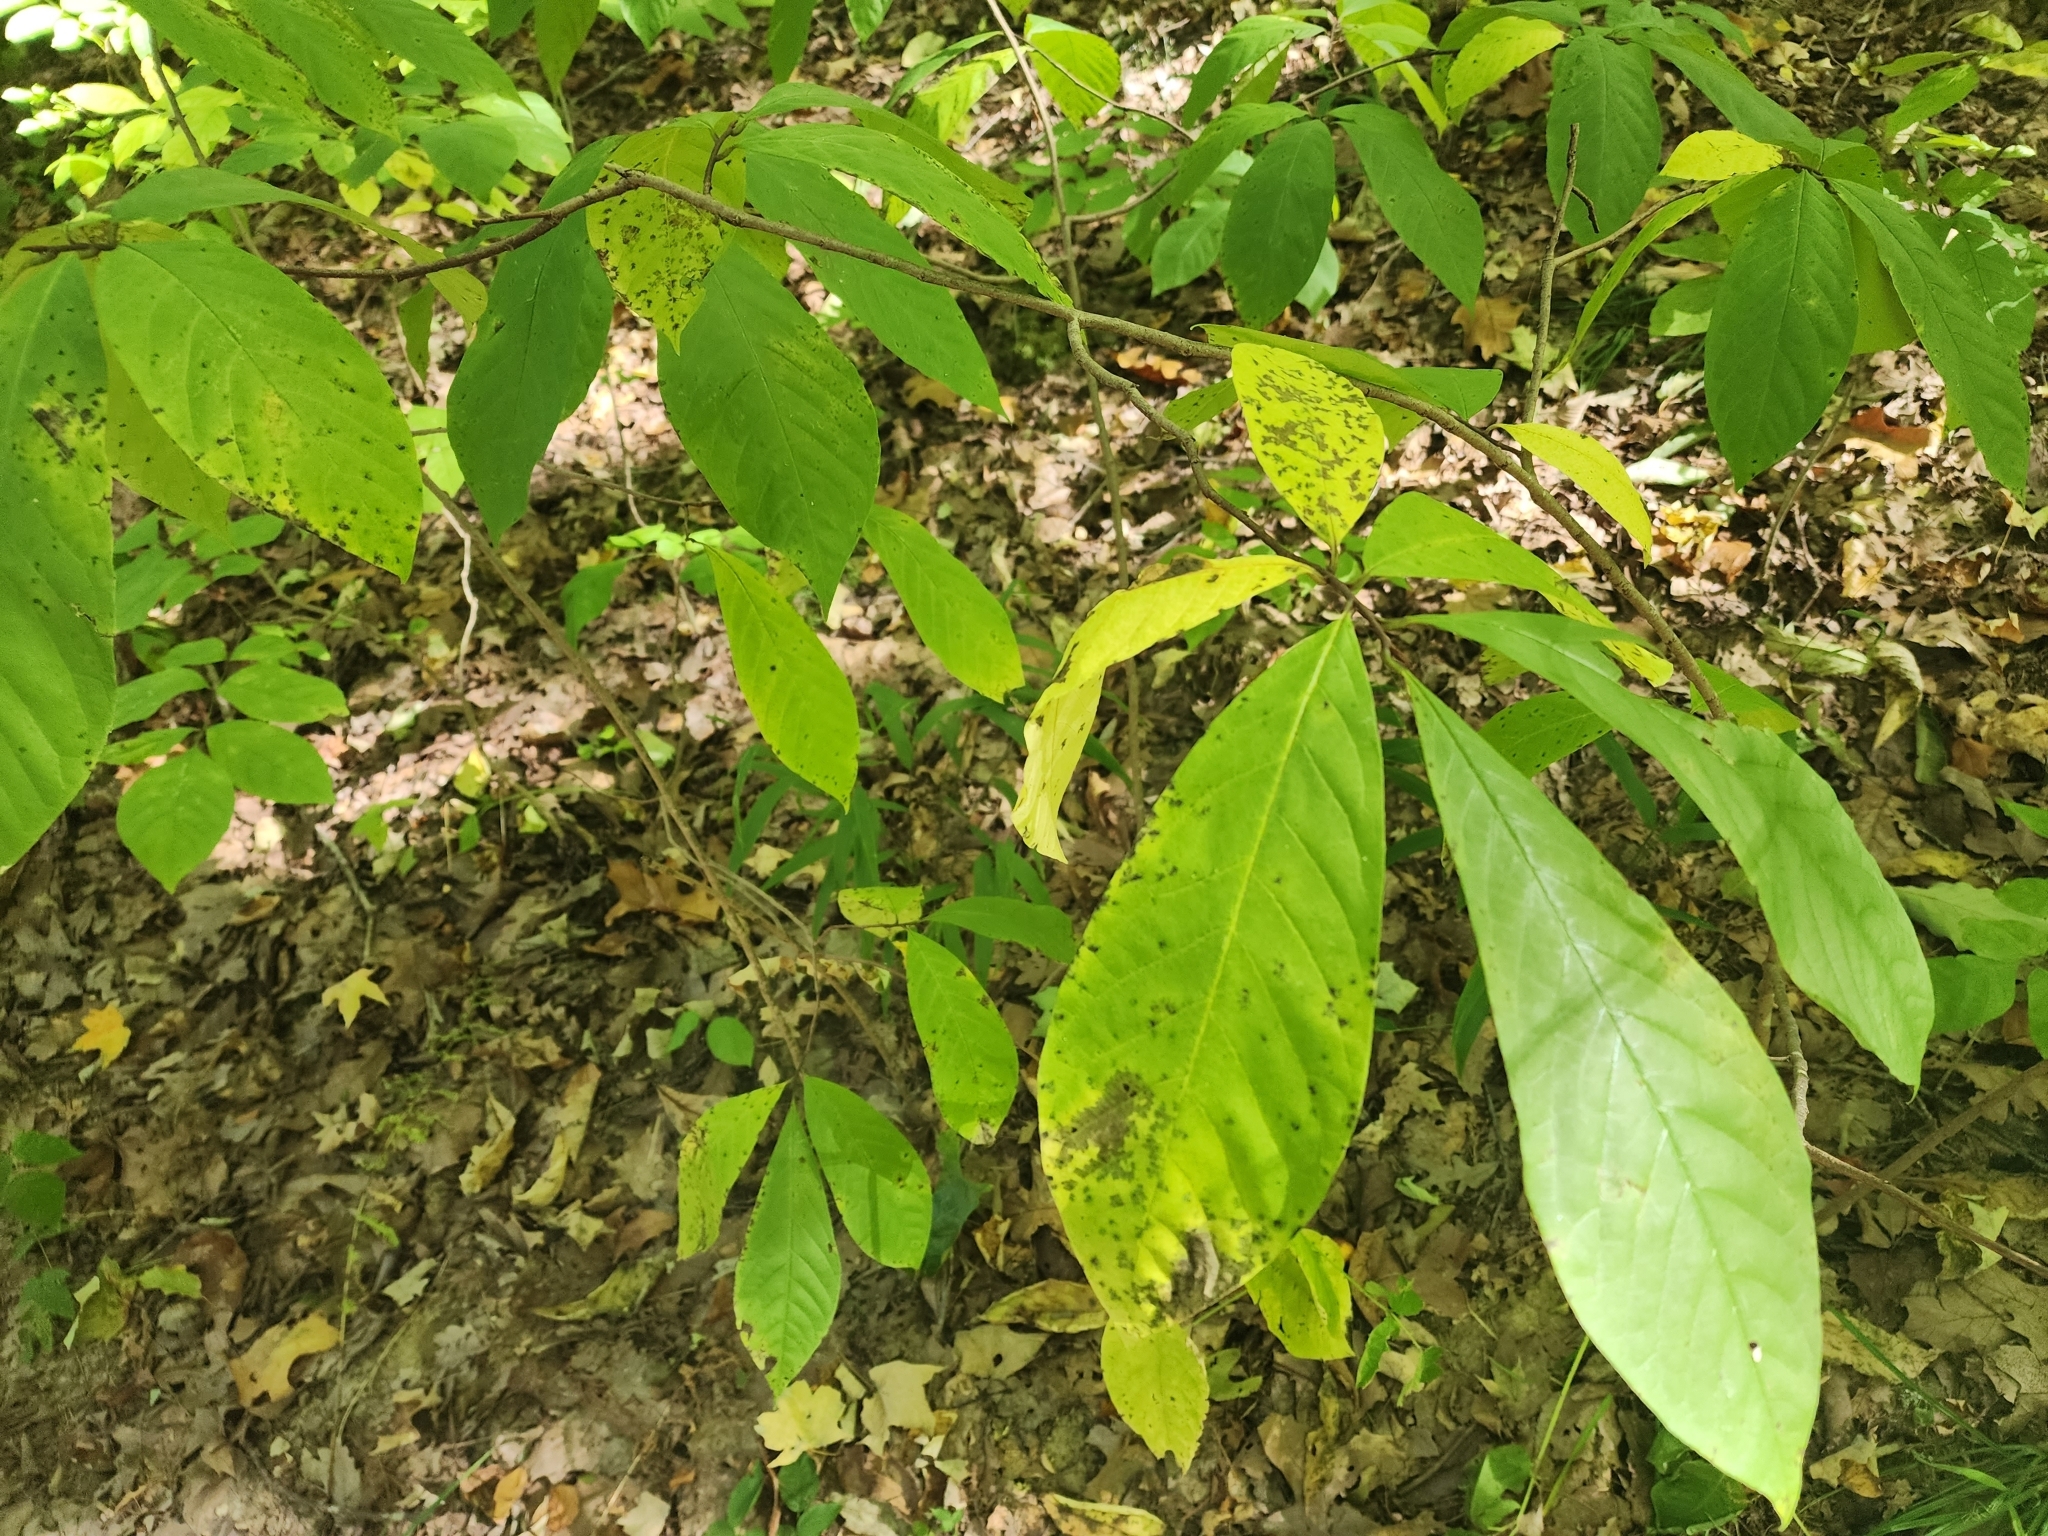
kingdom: Plantae
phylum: Tracheophyta
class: Magnoliopsida
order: Magnoliales
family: Annonaceae
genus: Asimina
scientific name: Asimina triloba
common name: Dog-banana
